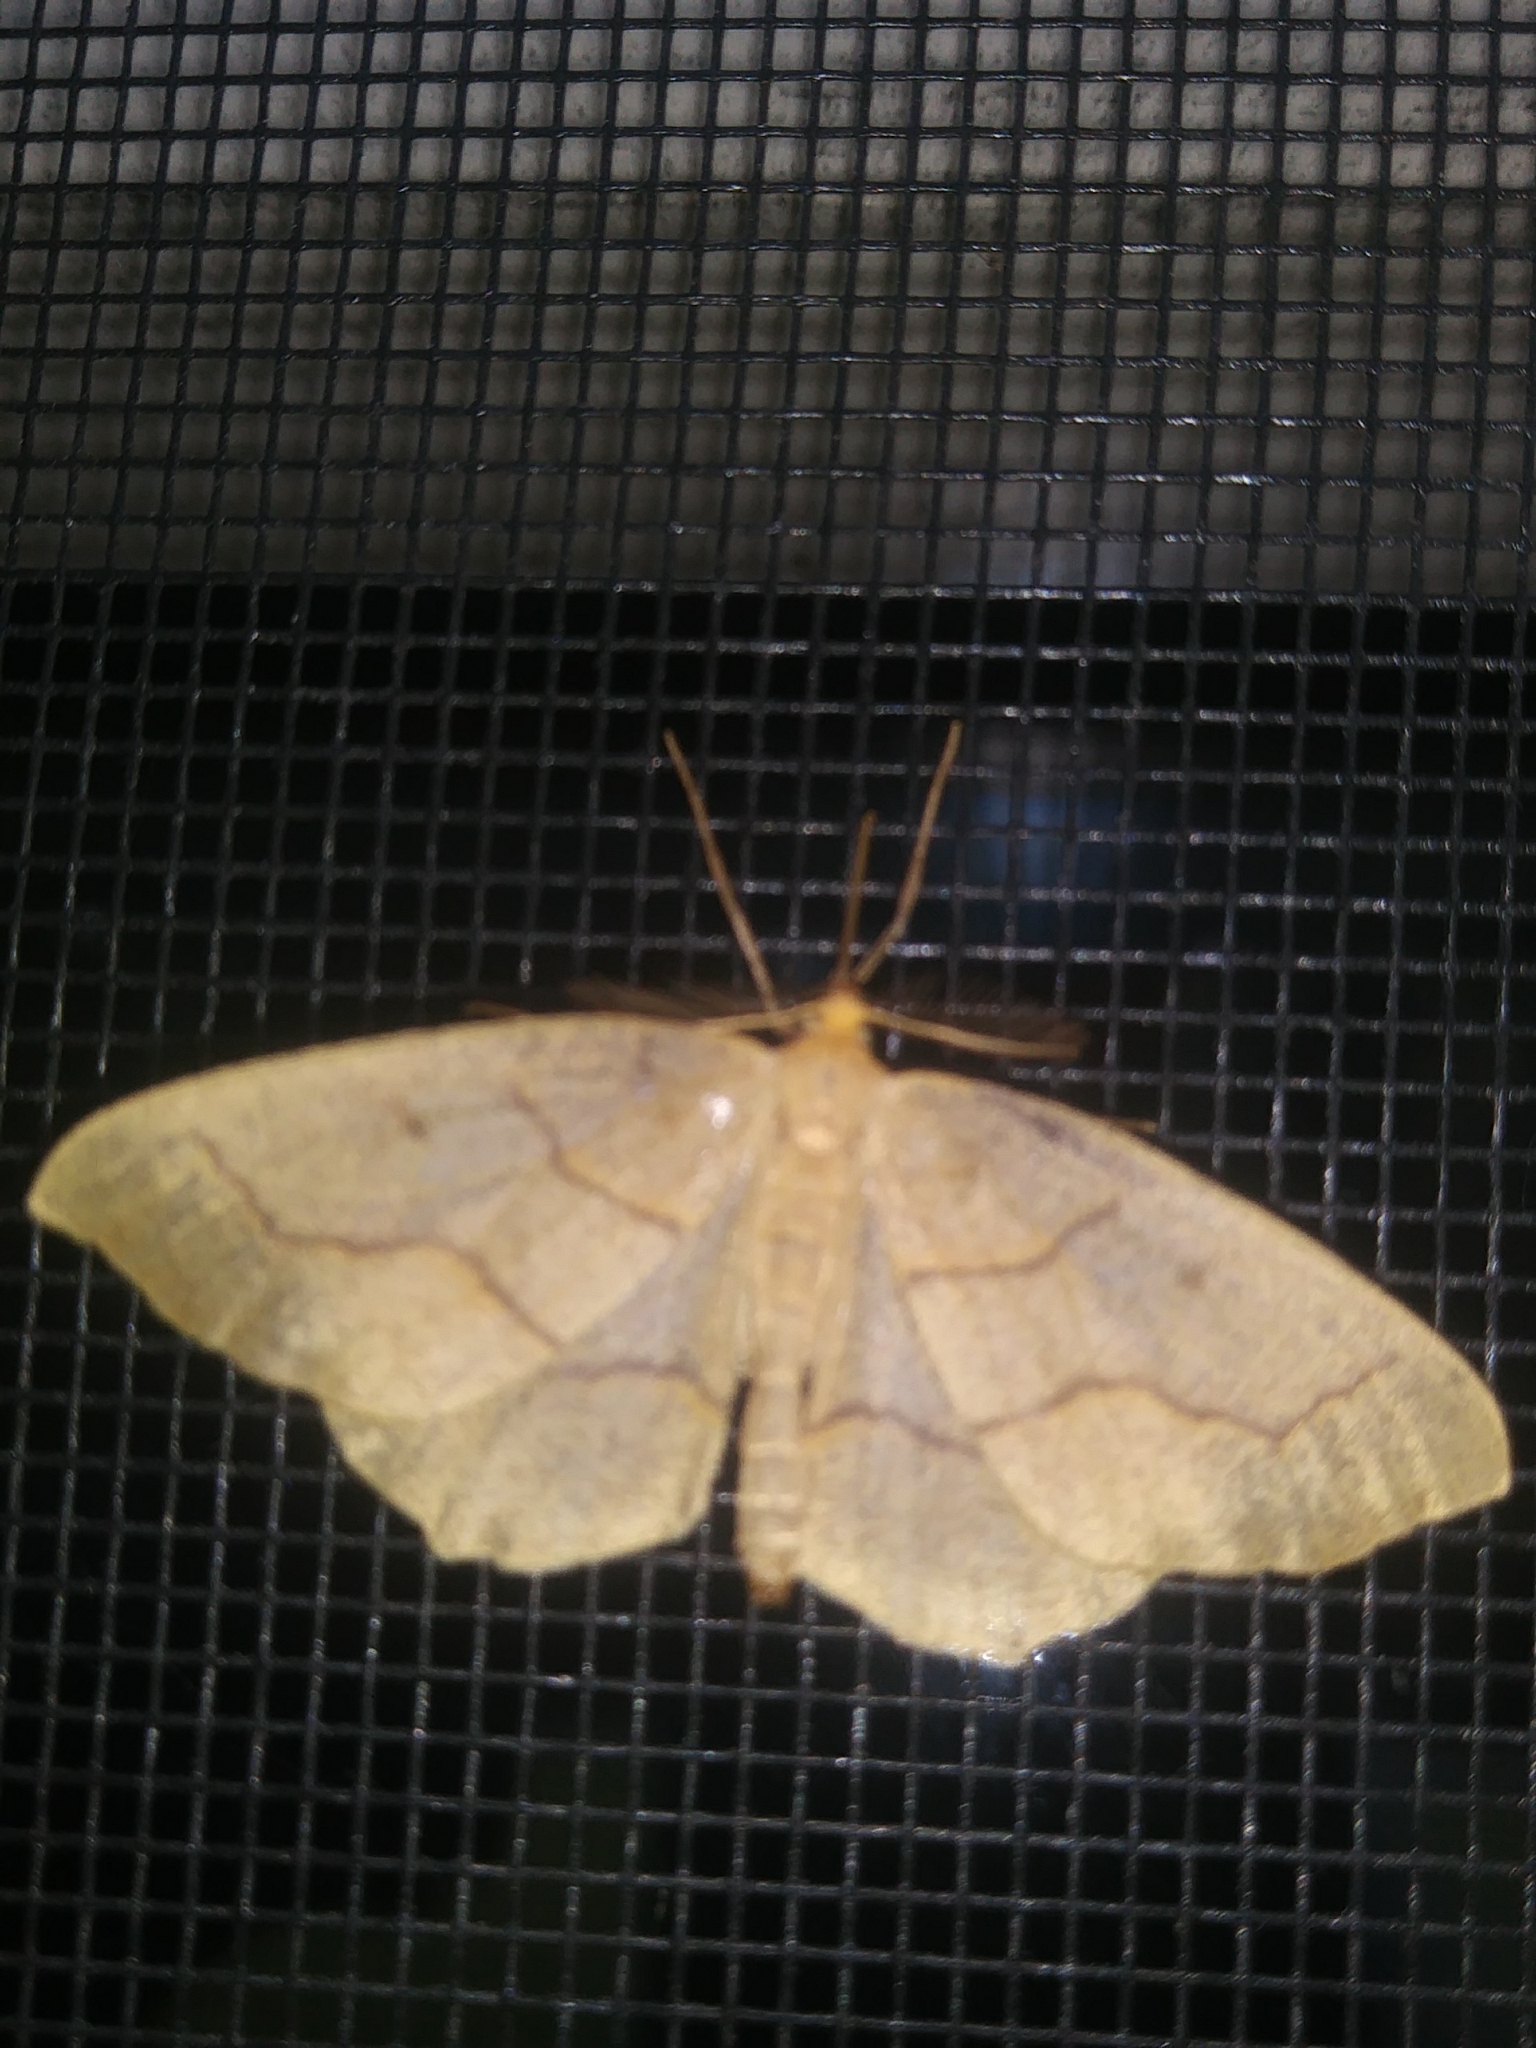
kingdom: Animalia
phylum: Arthropoda
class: Insecta
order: Lepidoptera
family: Geometridae
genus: Lambdina
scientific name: Lambdina fiscellaria
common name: Hemlock looper
